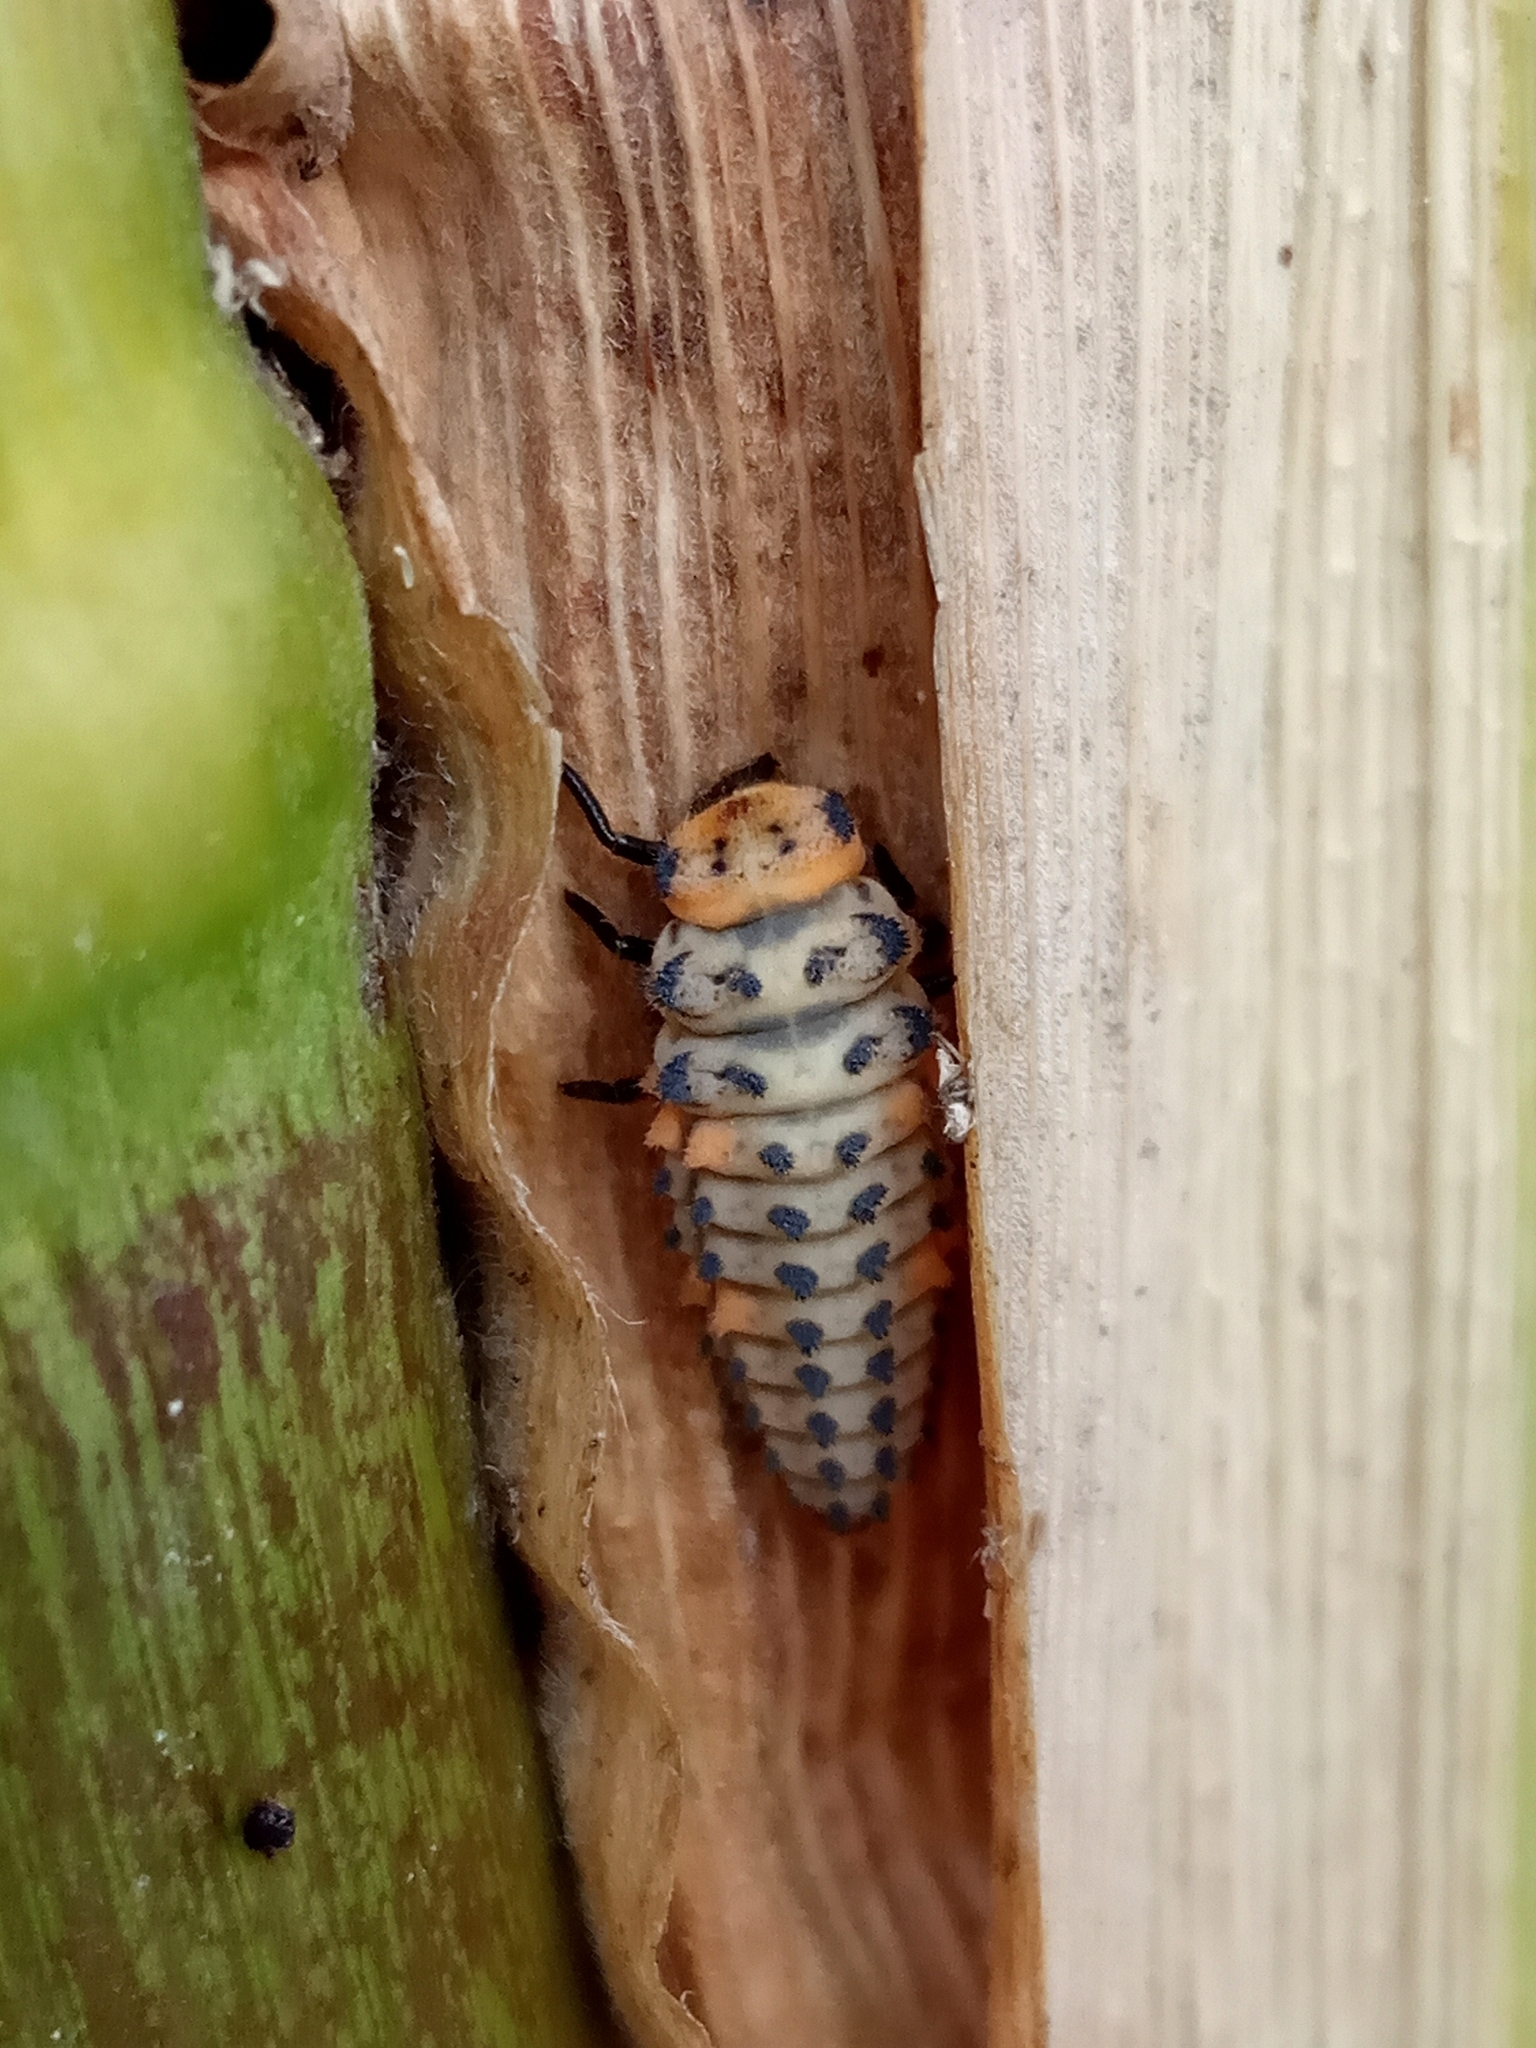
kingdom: Animalia
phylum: Arthropoda
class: Insecta
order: Coleoptera
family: Coccinellidae
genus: Coccinella
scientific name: Coccinella magnifica
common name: Scarce 7-spot ladybird
